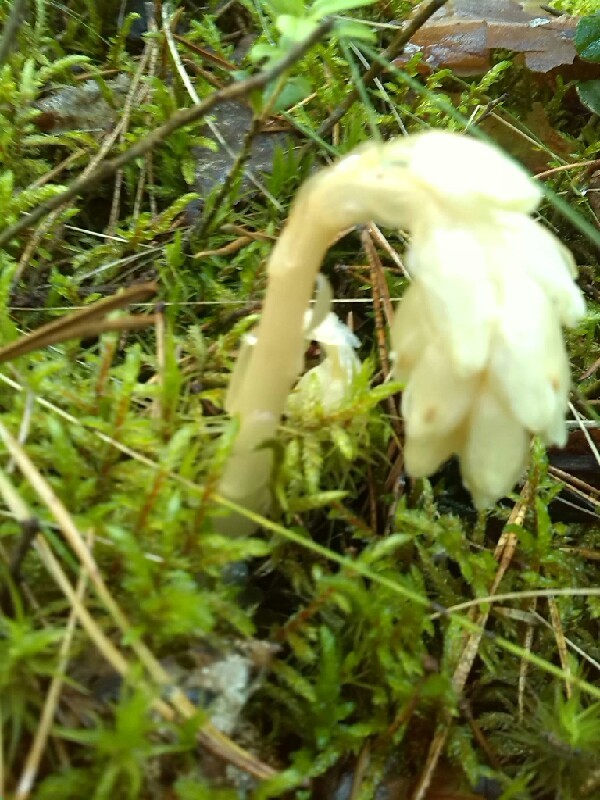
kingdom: Plantae
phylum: Tracheophyta
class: Magnoliopsida
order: Ericales
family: Ericaceae
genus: Hypopitys
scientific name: Hypopitys monotropa
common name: Yellow bird's-nest
